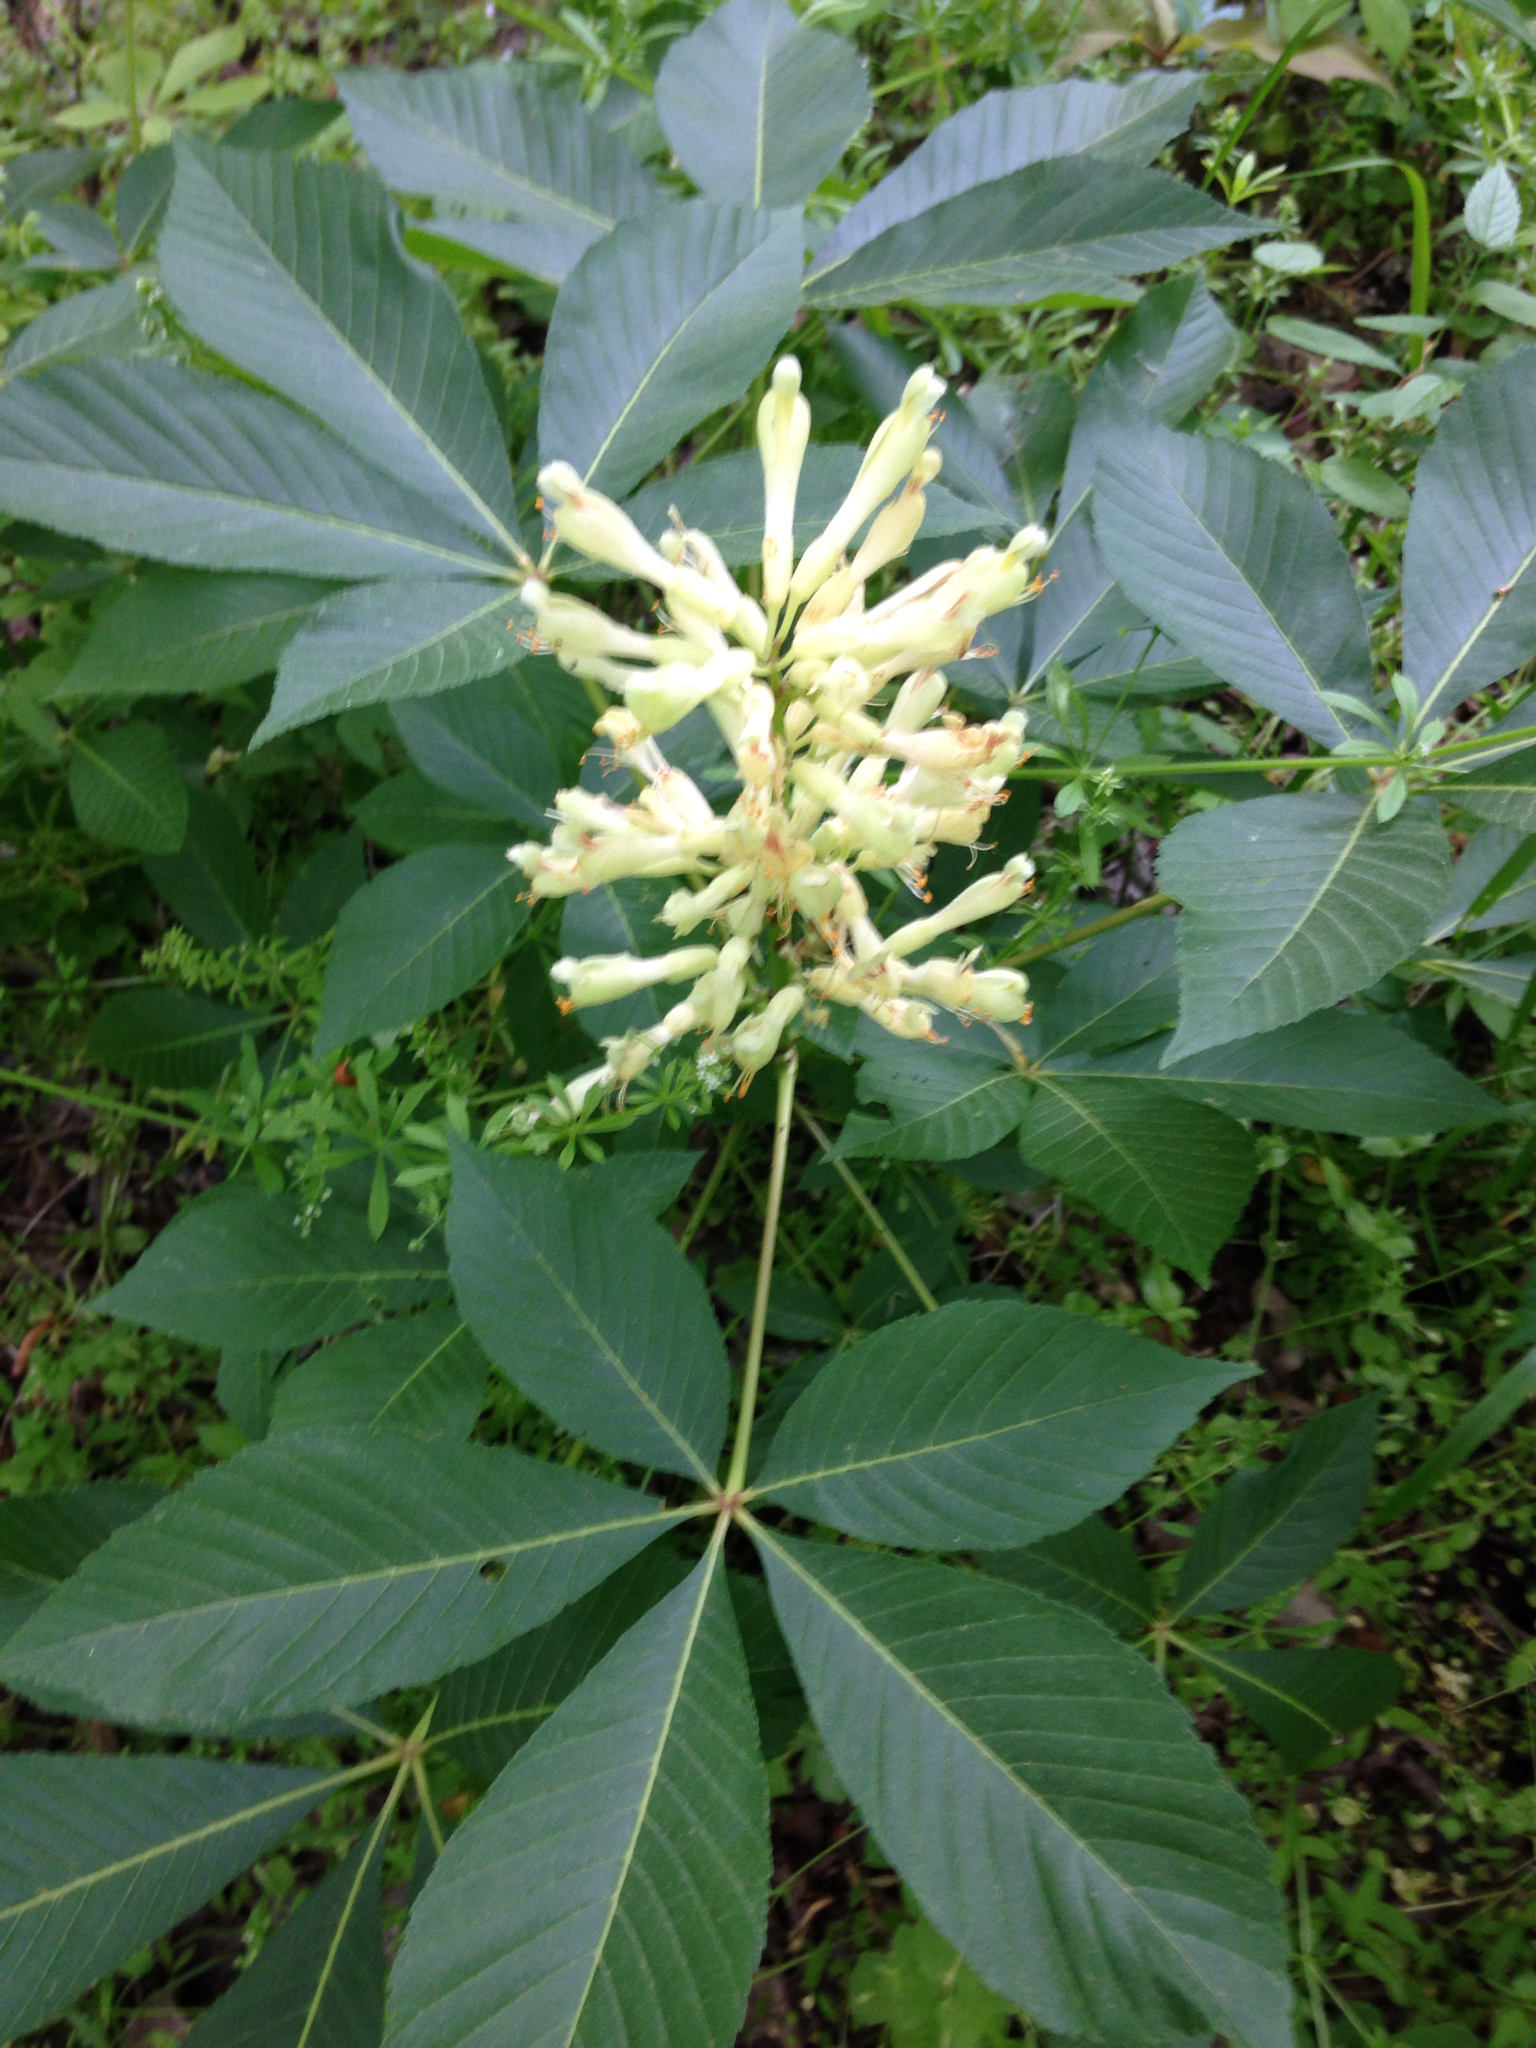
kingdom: Plantae
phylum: Tracheophyta
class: Magnoliopsida
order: Sapindales
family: Sapindaceae
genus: Aesculus
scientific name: Aesculus sylvatica
